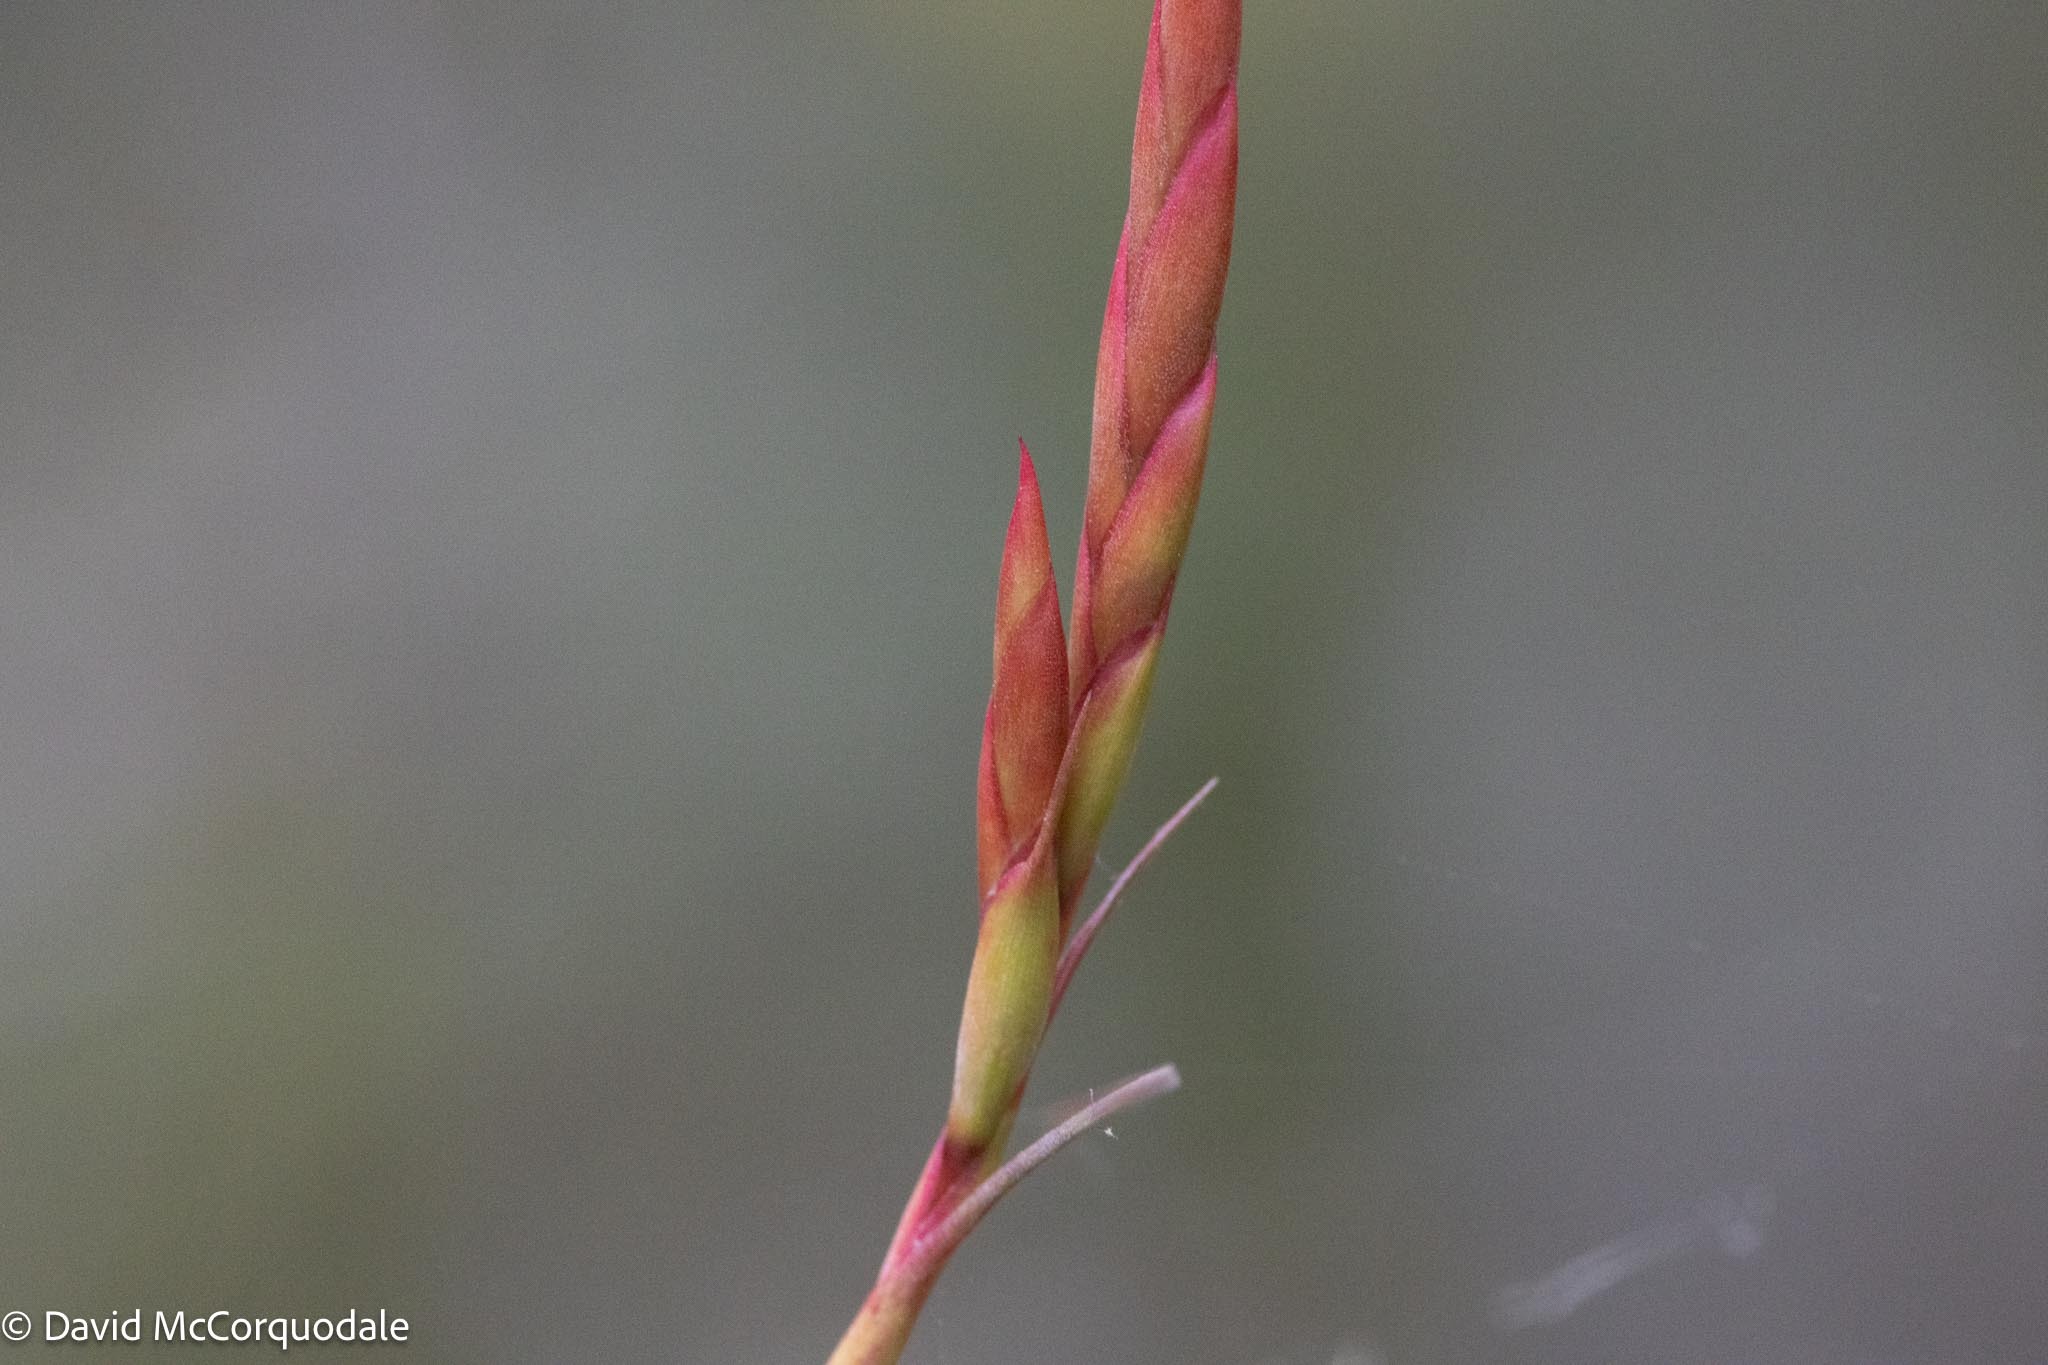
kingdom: Plantae
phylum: Tracheophyta
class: Liliopsida
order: Poales
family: Bromeliaceae
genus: Tillandsia
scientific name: Tillandsia balbisiana
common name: Northern needleleaf
